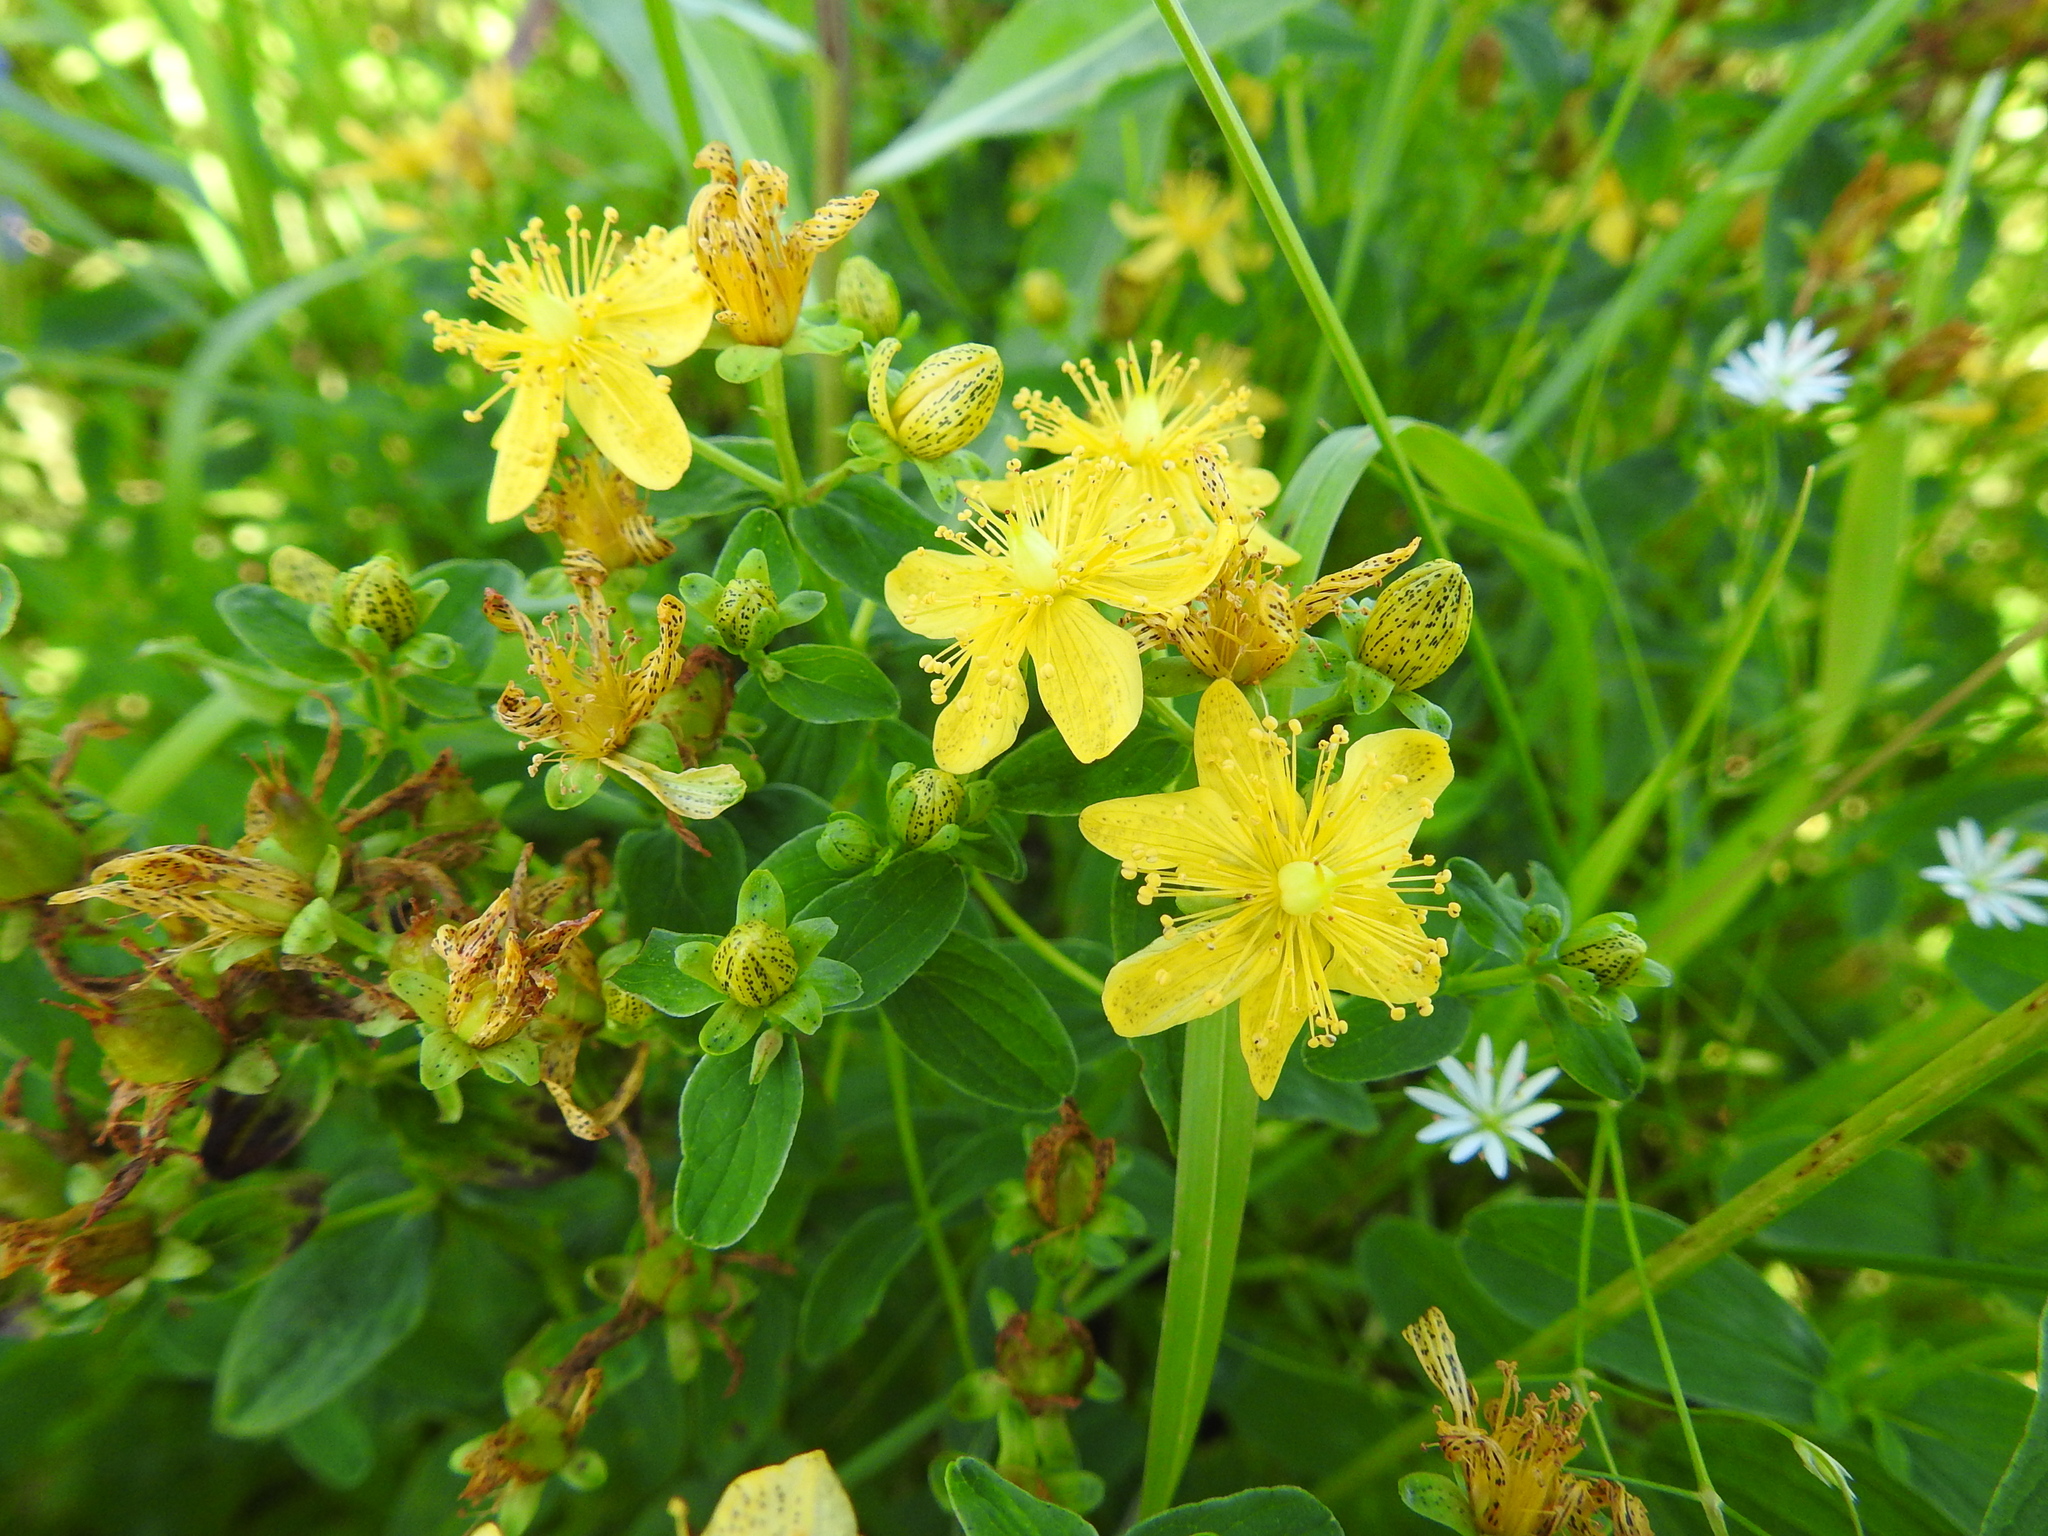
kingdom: Plantae
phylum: Tracheophyta
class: Magnoliopsida
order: Malpighiales
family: Hypericaceae
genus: Hypericum
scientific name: Hypericum maculatum
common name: Imperforate st. john's-wort
